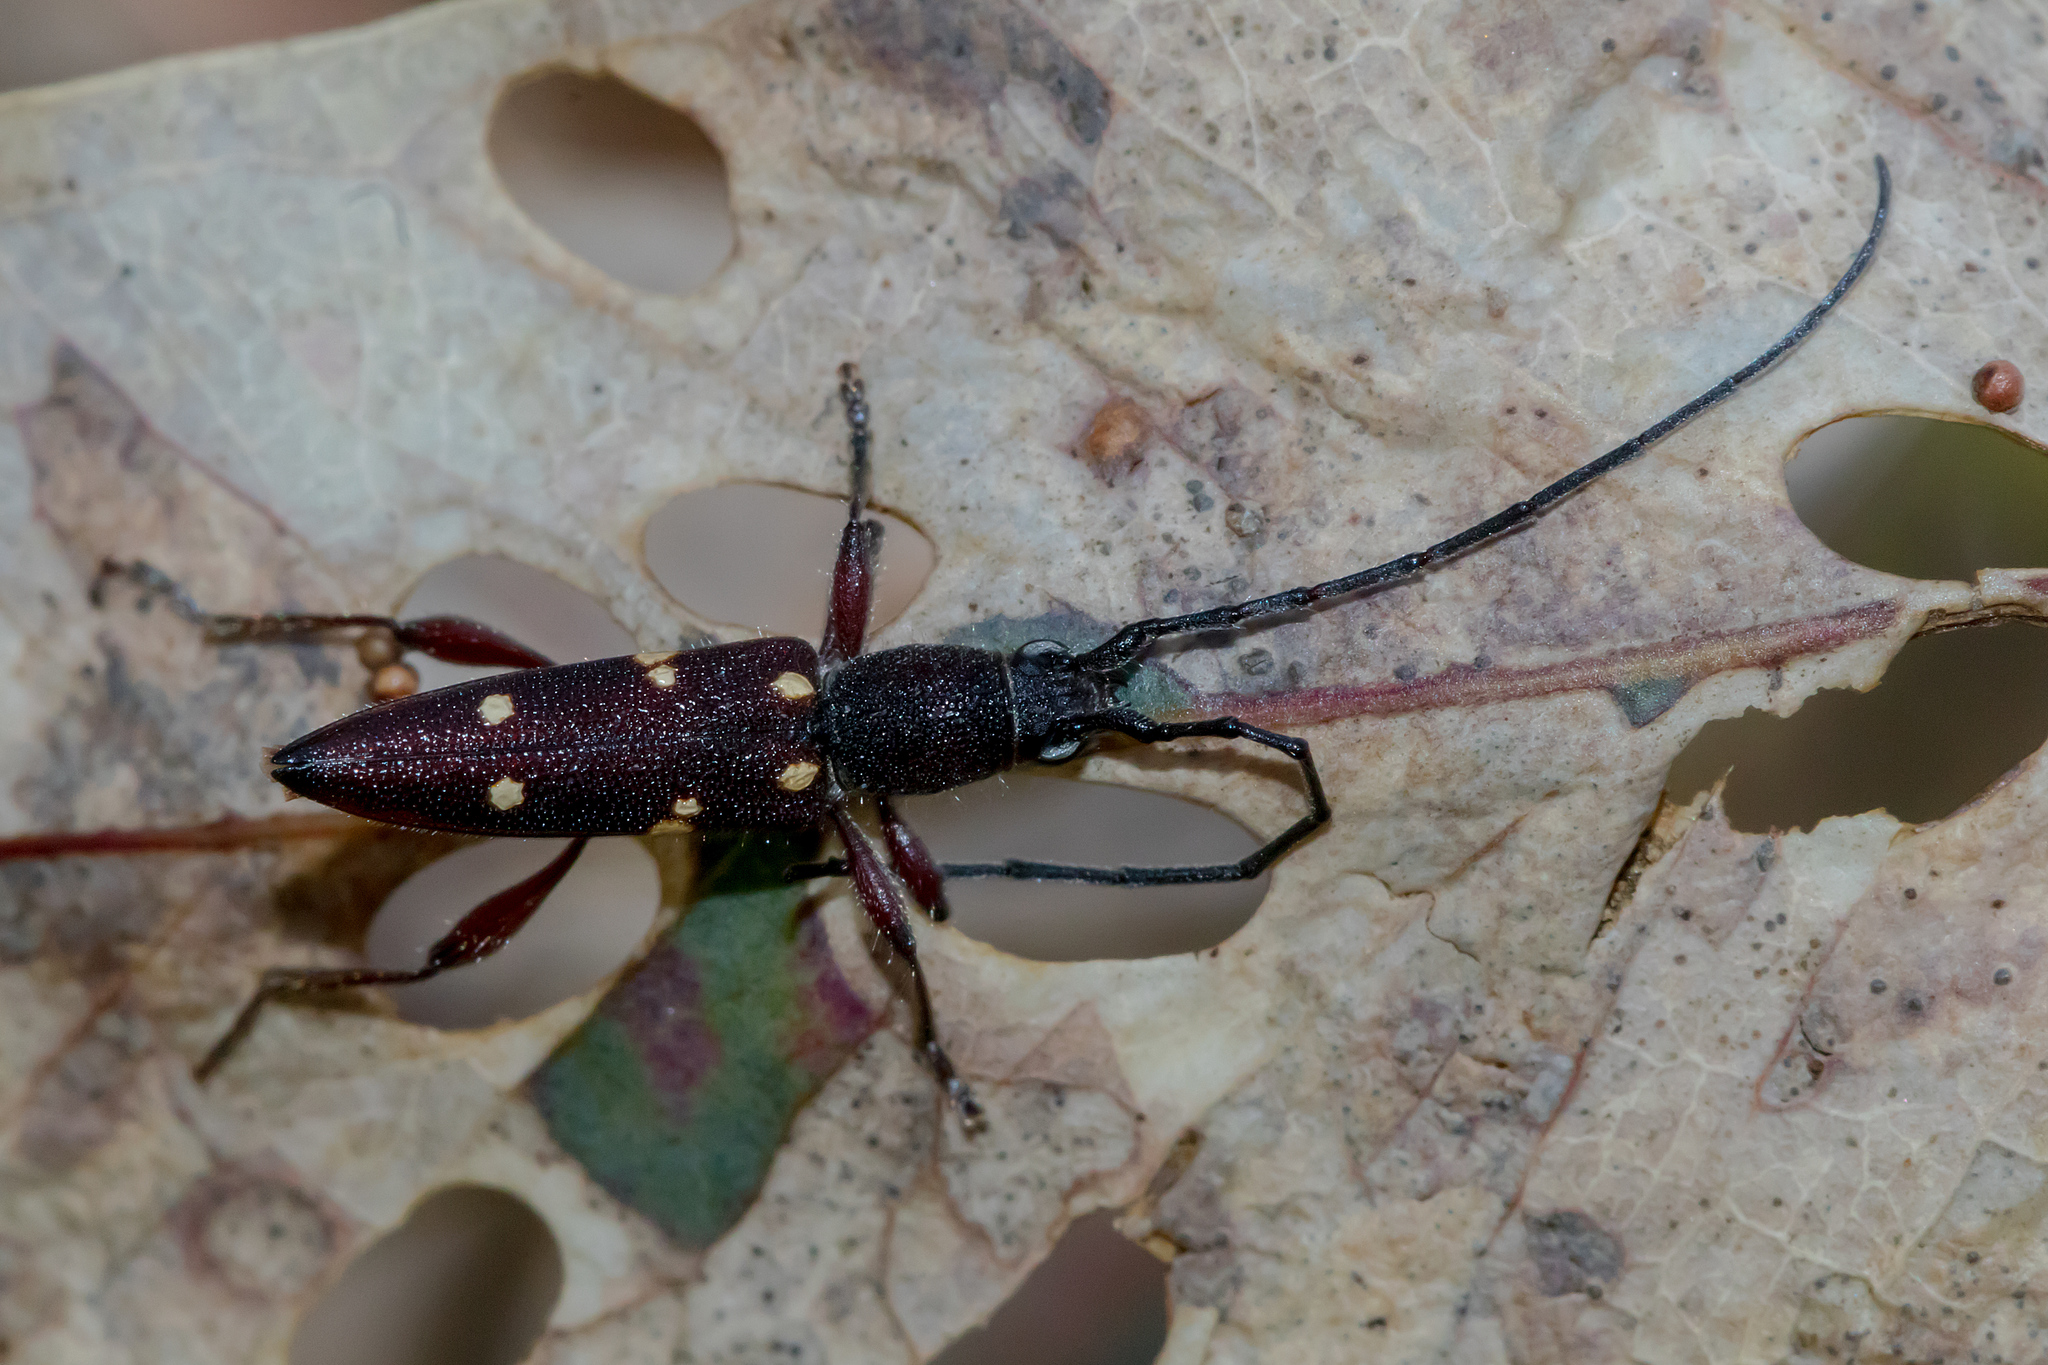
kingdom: Animalia
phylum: Arthropoda
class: Insecta
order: Coleoptera
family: Cerambycidae
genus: Eburophora
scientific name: Eburophora octoguttata
